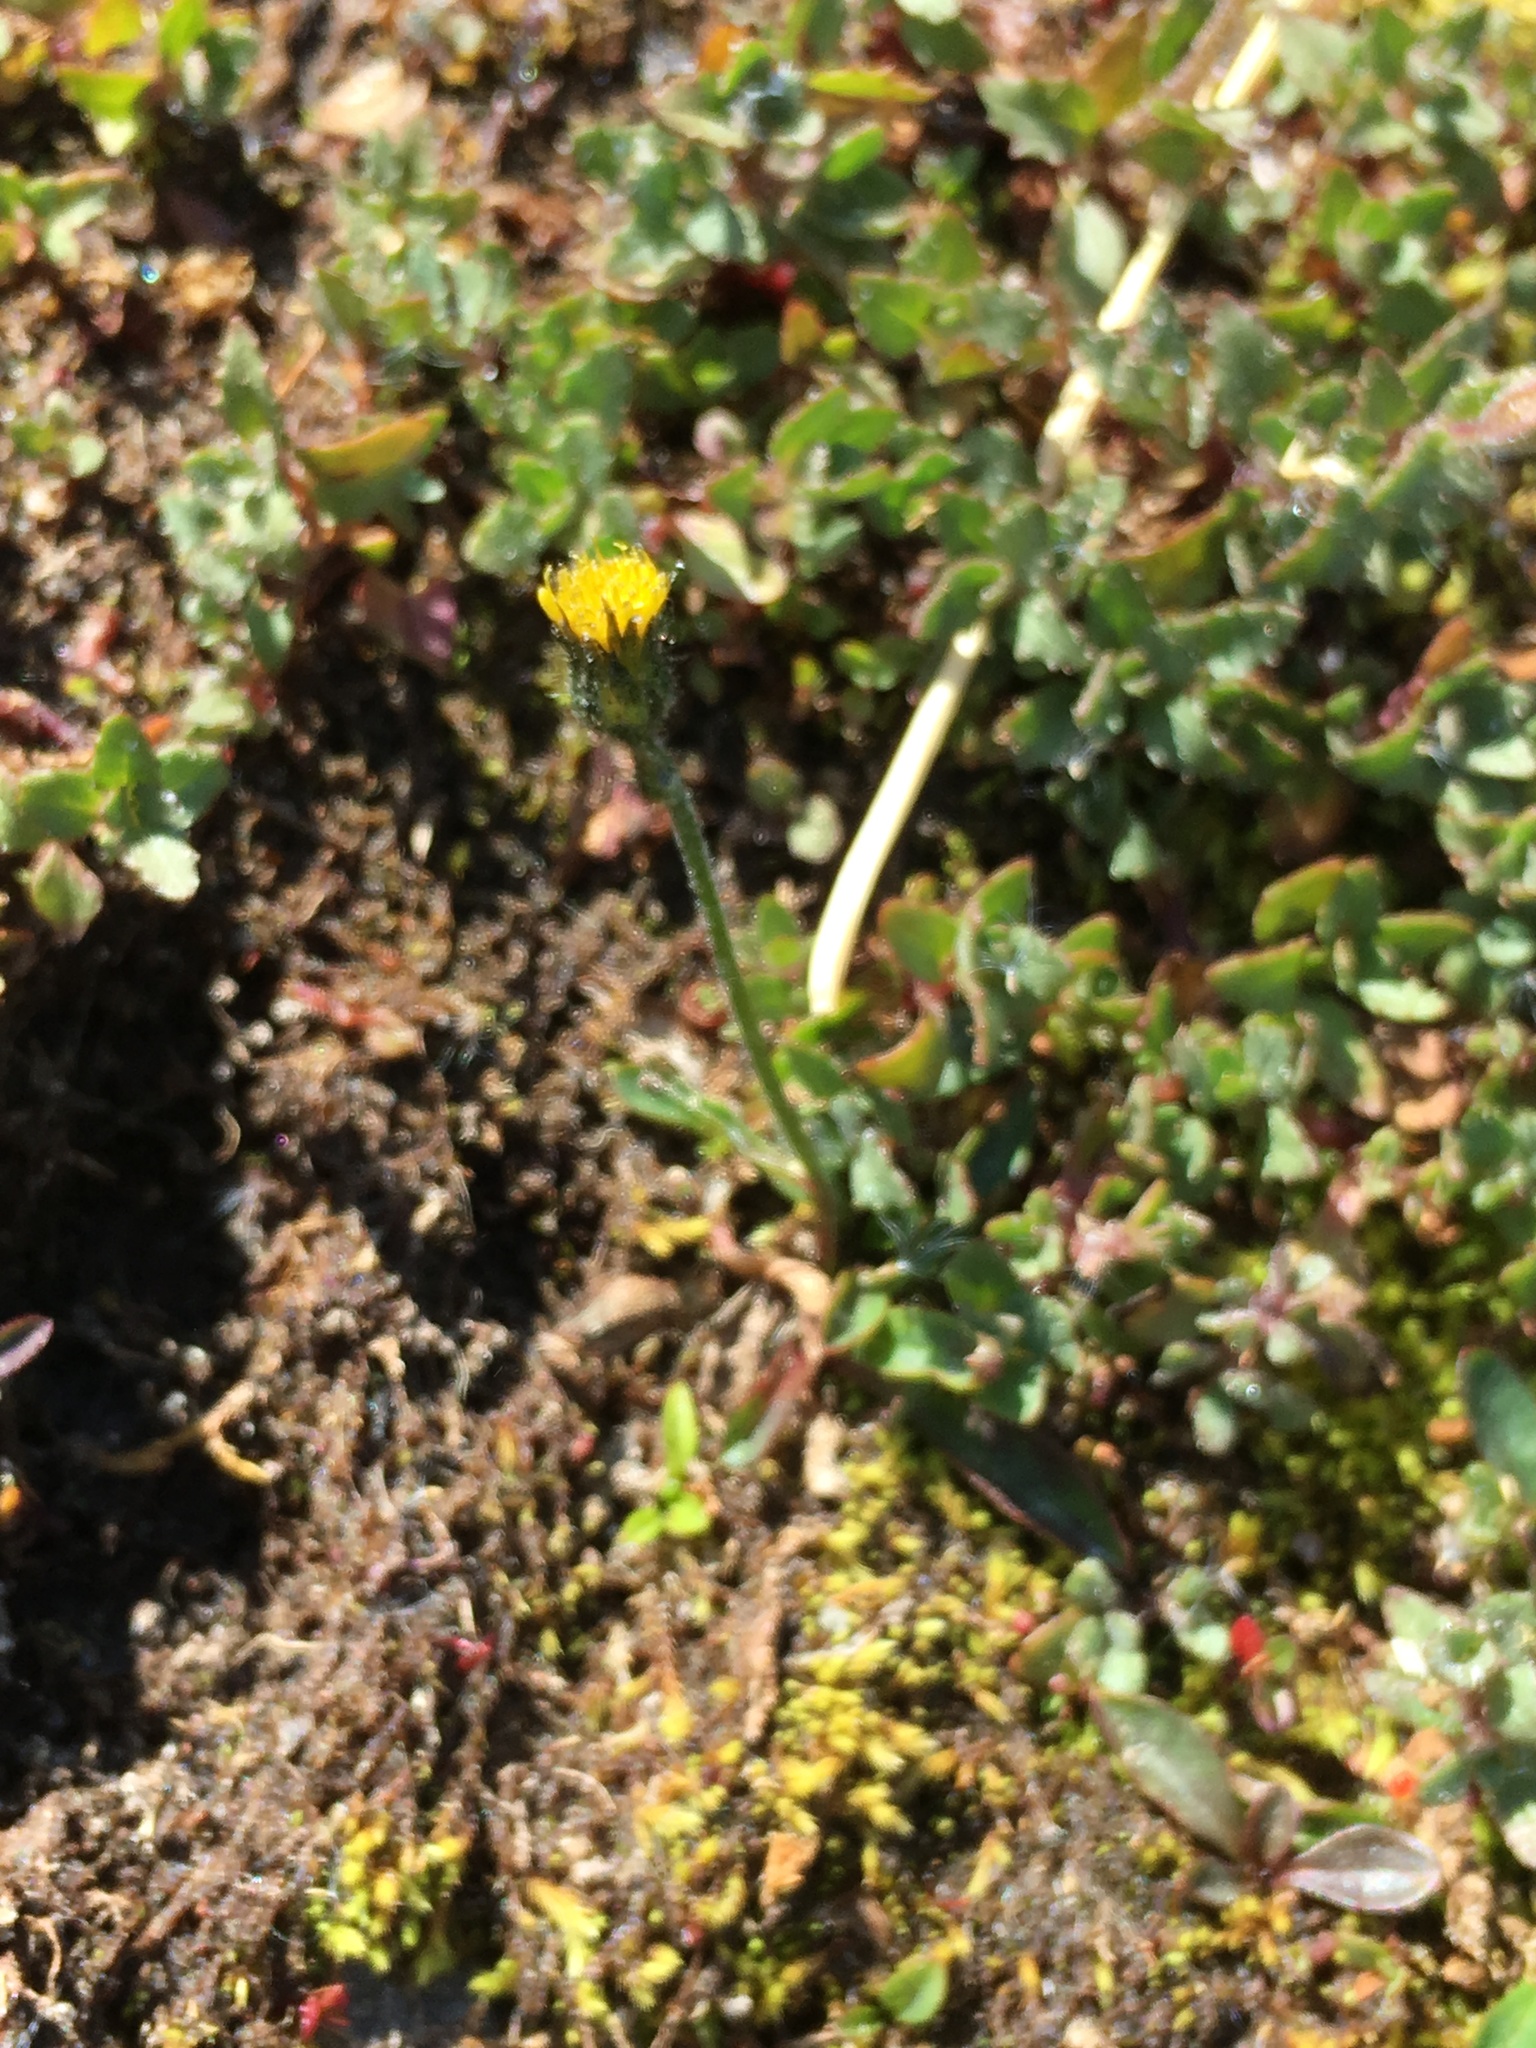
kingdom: Plantae
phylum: Tracheophyta
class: Magnoliopsida
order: Asterales
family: Asteraceae
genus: Hieracium
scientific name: Hieracium triste
